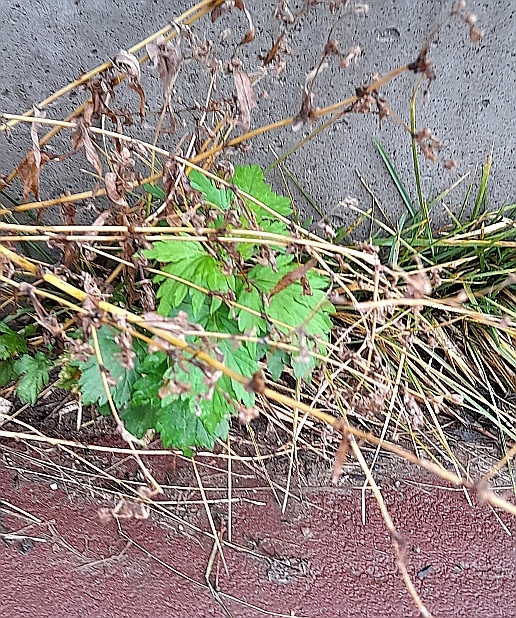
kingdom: Plantae
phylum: Tracheophyta
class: Magnoliopsida
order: Asterales
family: Asteraceae
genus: Artemisia
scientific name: Artemisia vulgaris
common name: Mugwort
